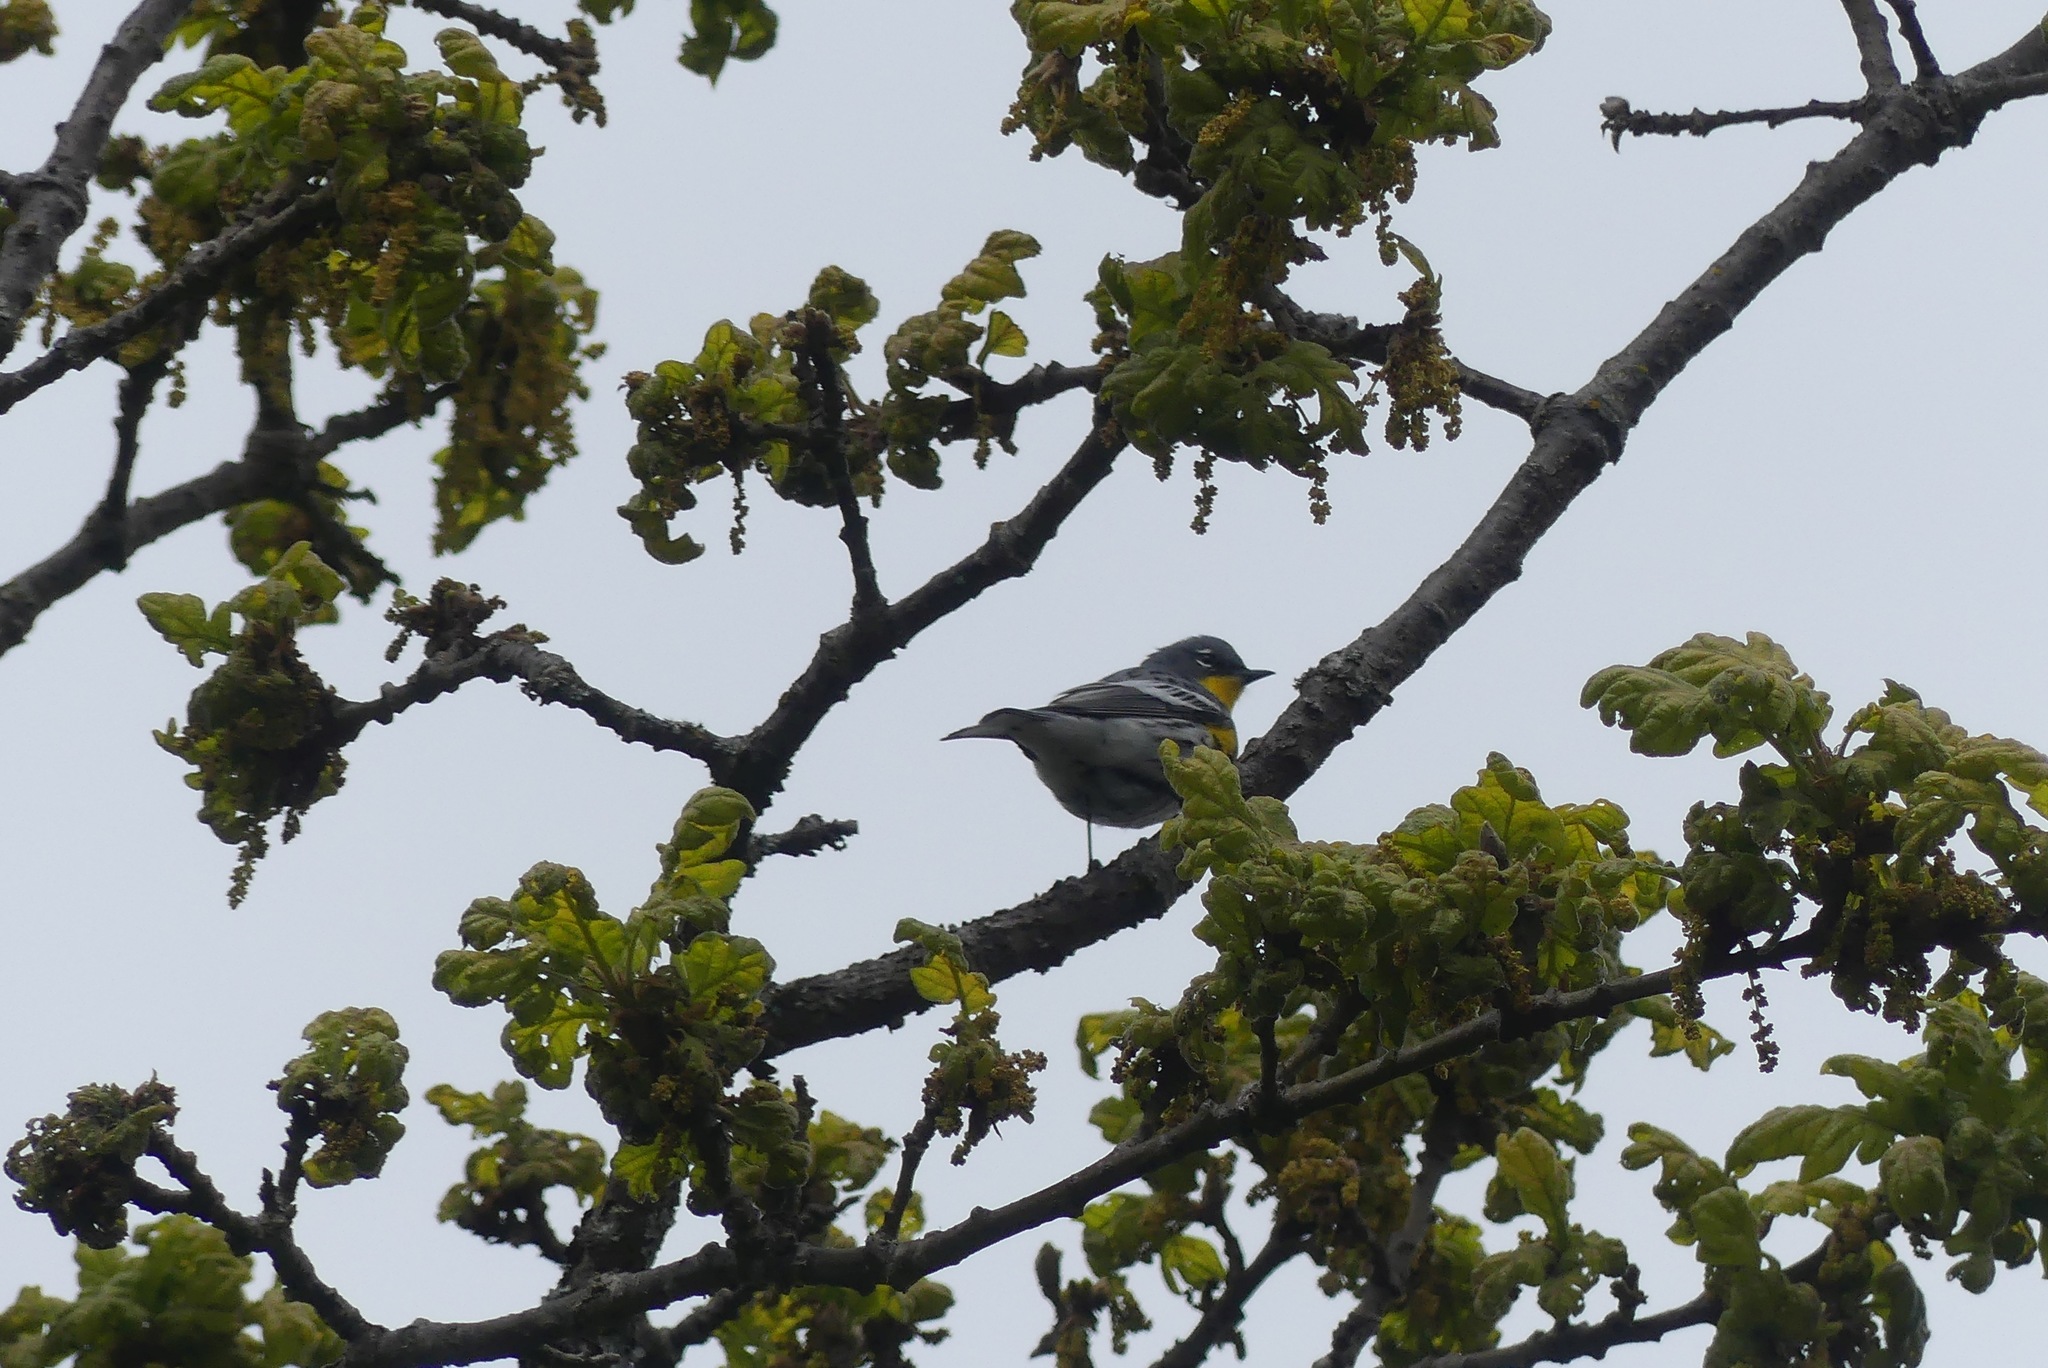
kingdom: Animalia
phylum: Chordata
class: Aves
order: Passeriformes
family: Parulidae
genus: Setophaga
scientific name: Setophaga coronata
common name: Myrtle warbler
